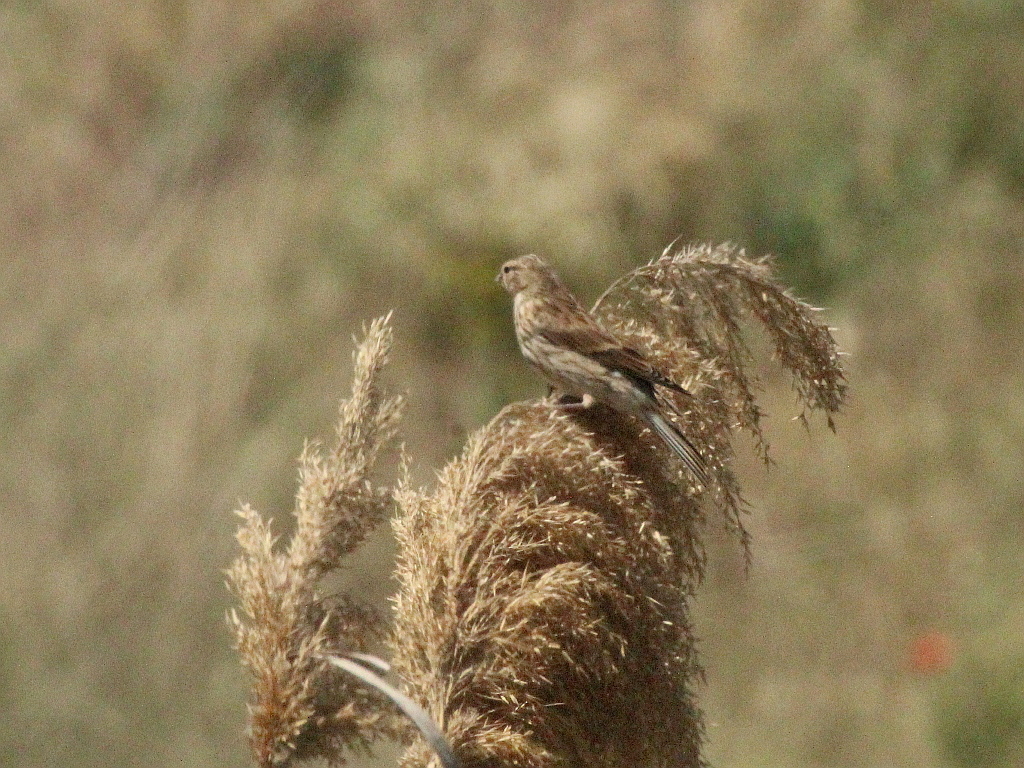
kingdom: Animalia
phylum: Chordata
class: Aves
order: Passeriformes
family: Fringillidae
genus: Linaria
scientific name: Linaria cannabina
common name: Common linnet
